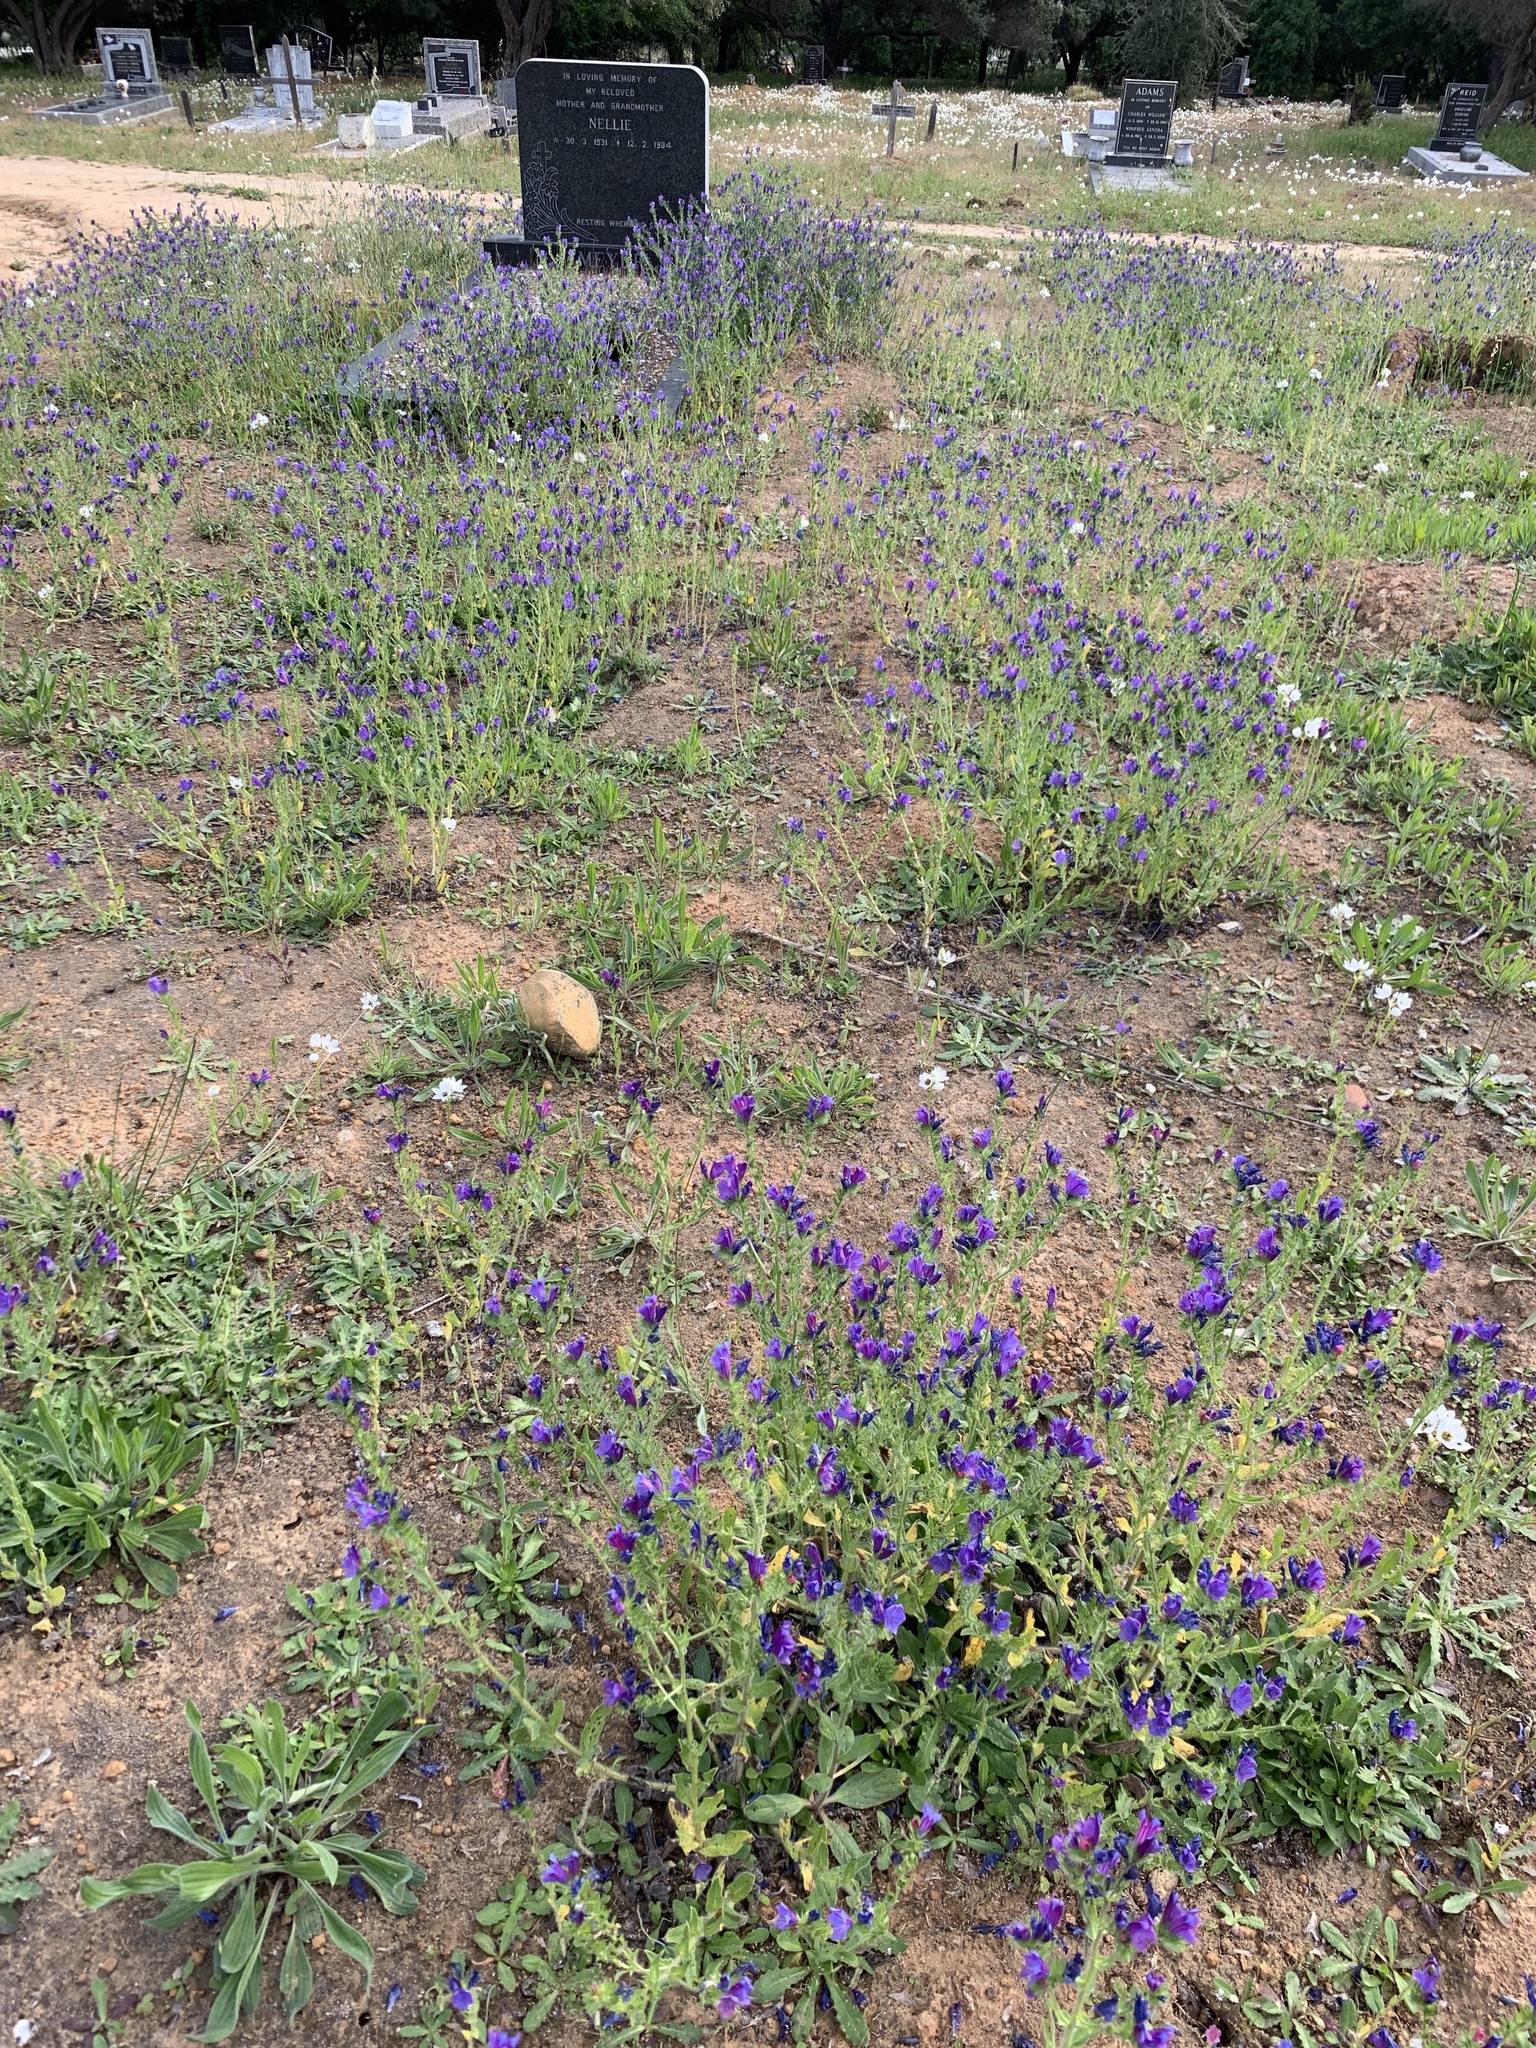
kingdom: Plantae
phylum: Tracheophyta
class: Magnoliopsida
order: Boraginales
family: Boraginaceae
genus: Echium
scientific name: Echium plantagineum
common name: Purple viper's-bugloss
